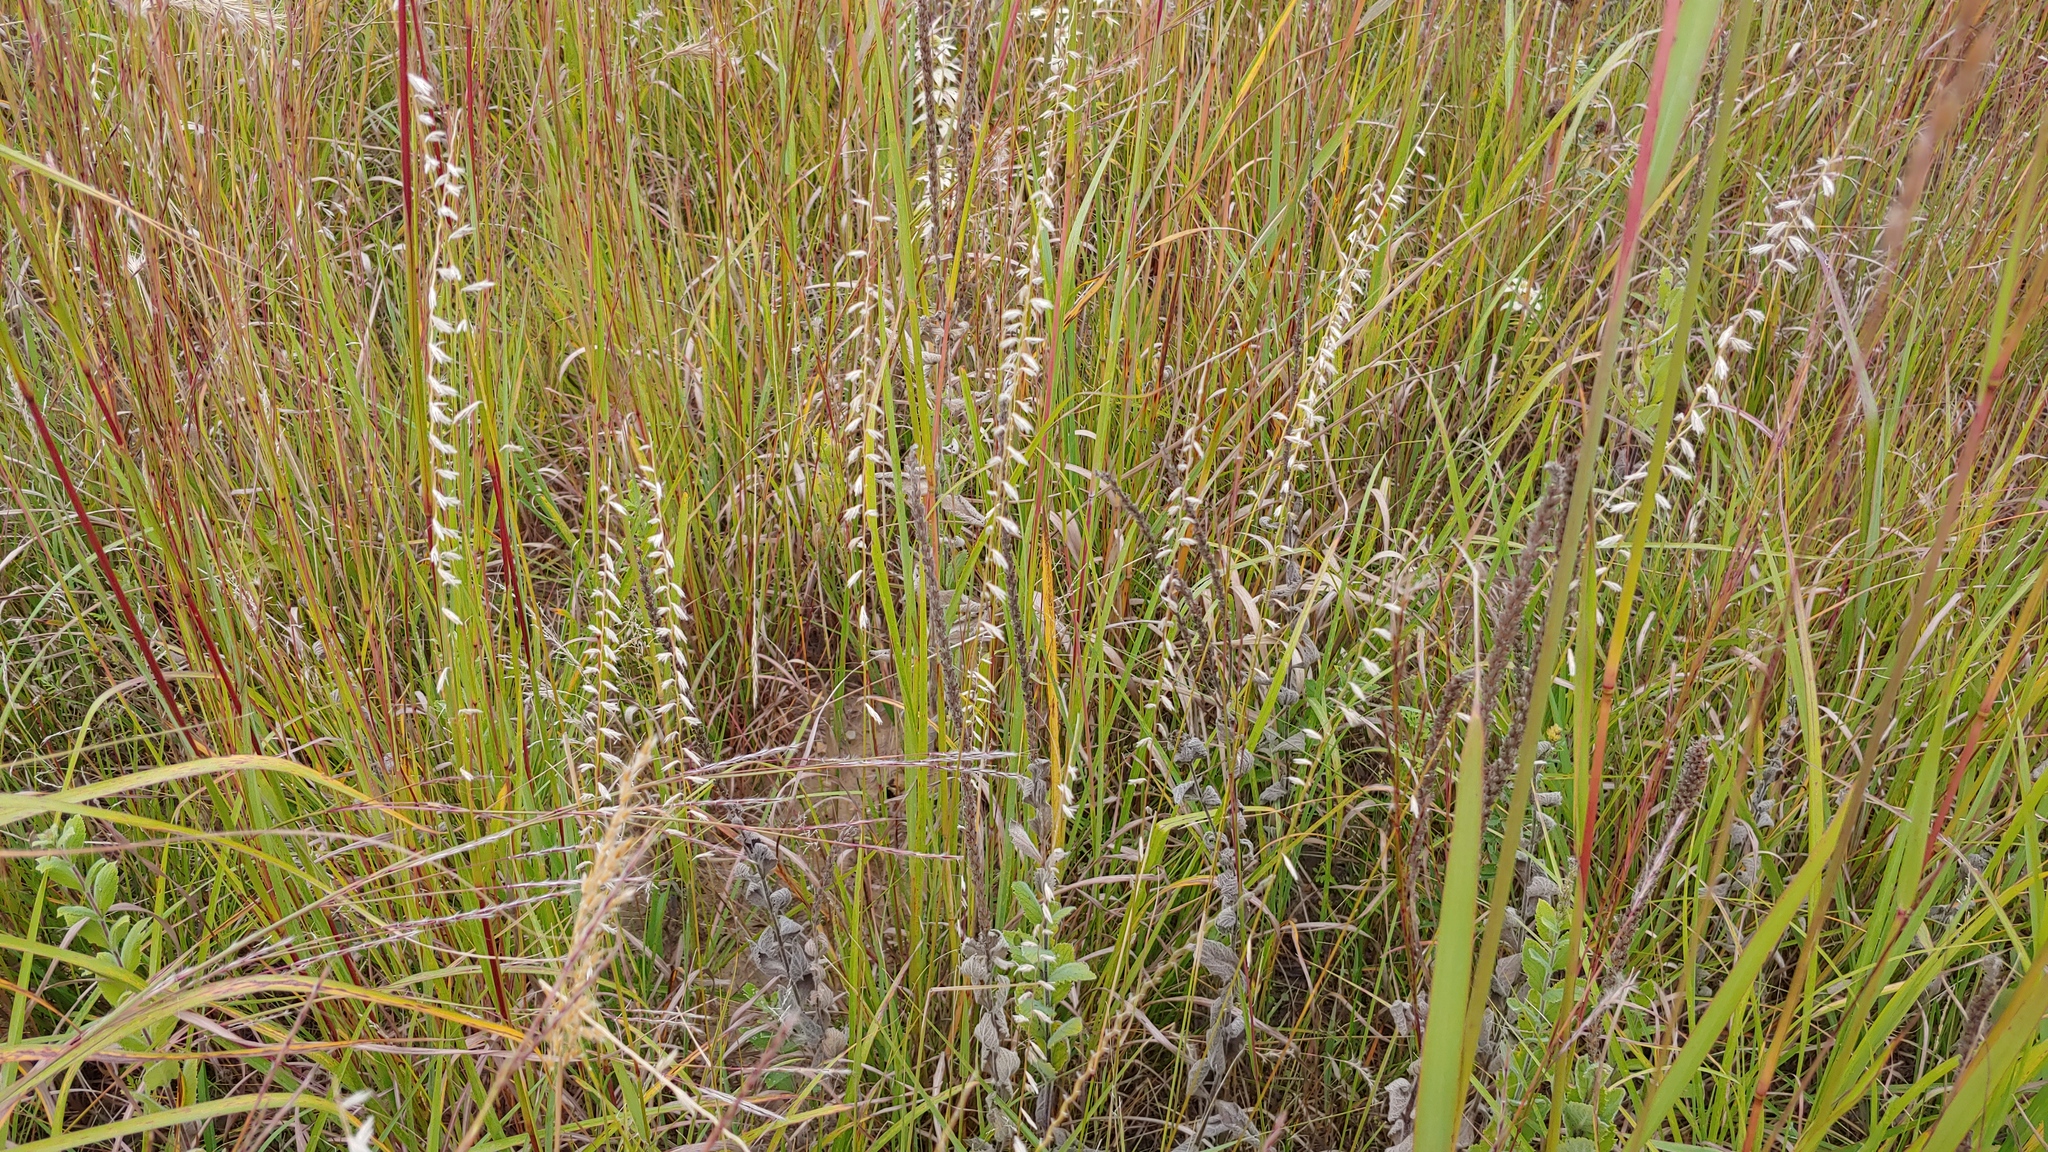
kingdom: Plantae
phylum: Tracheophyta
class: Liliopsida
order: Poales
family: Poaceae
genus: Bouteloua
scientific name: Bouteloua curtipendula
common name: Side-oats grama
